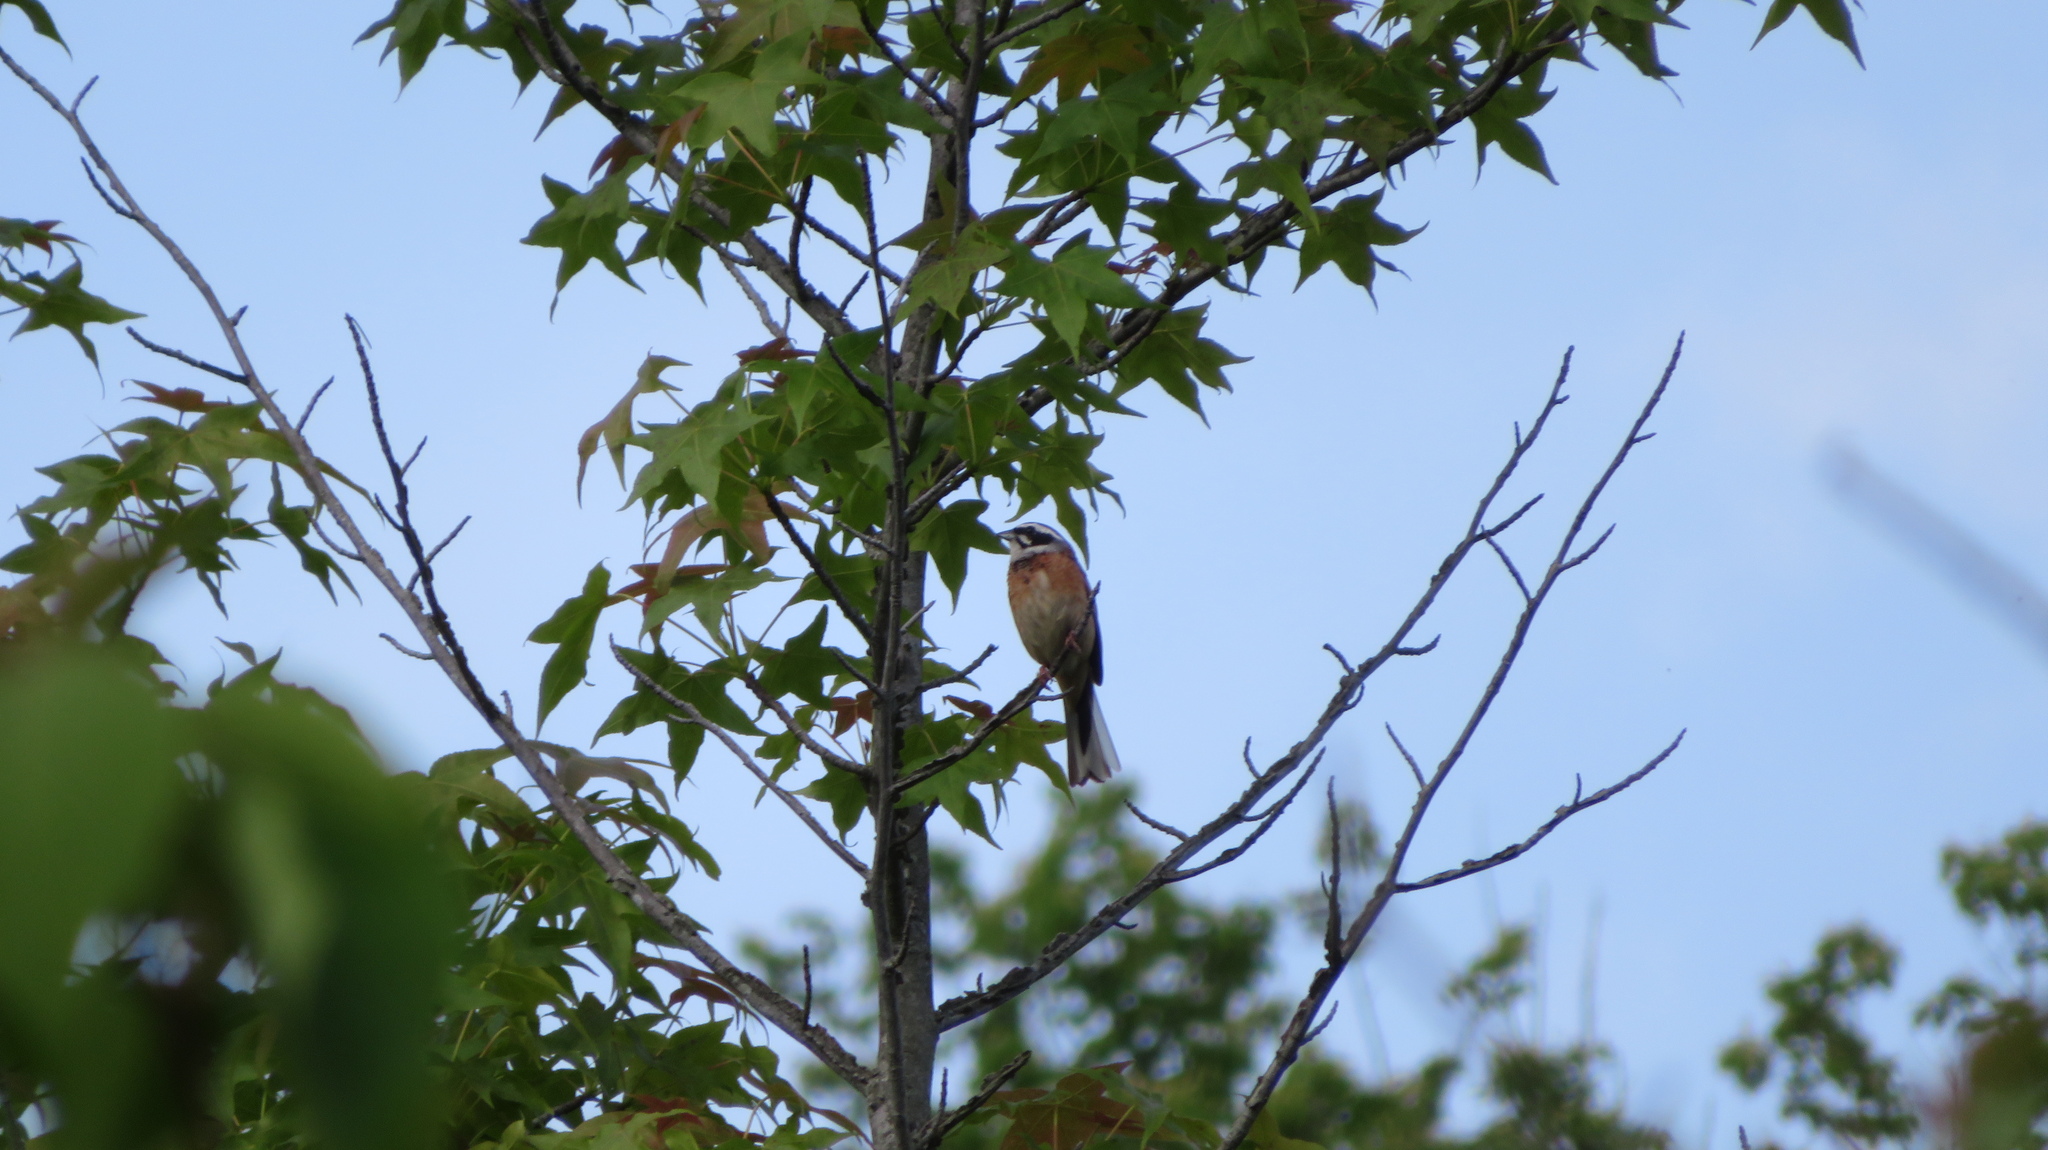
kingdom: Animalia
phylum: Chordata
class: Aves
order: Passeriformes
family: Emberizidae
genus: Emberiza
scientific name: Emberiza cioides
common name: Meadow bunting
